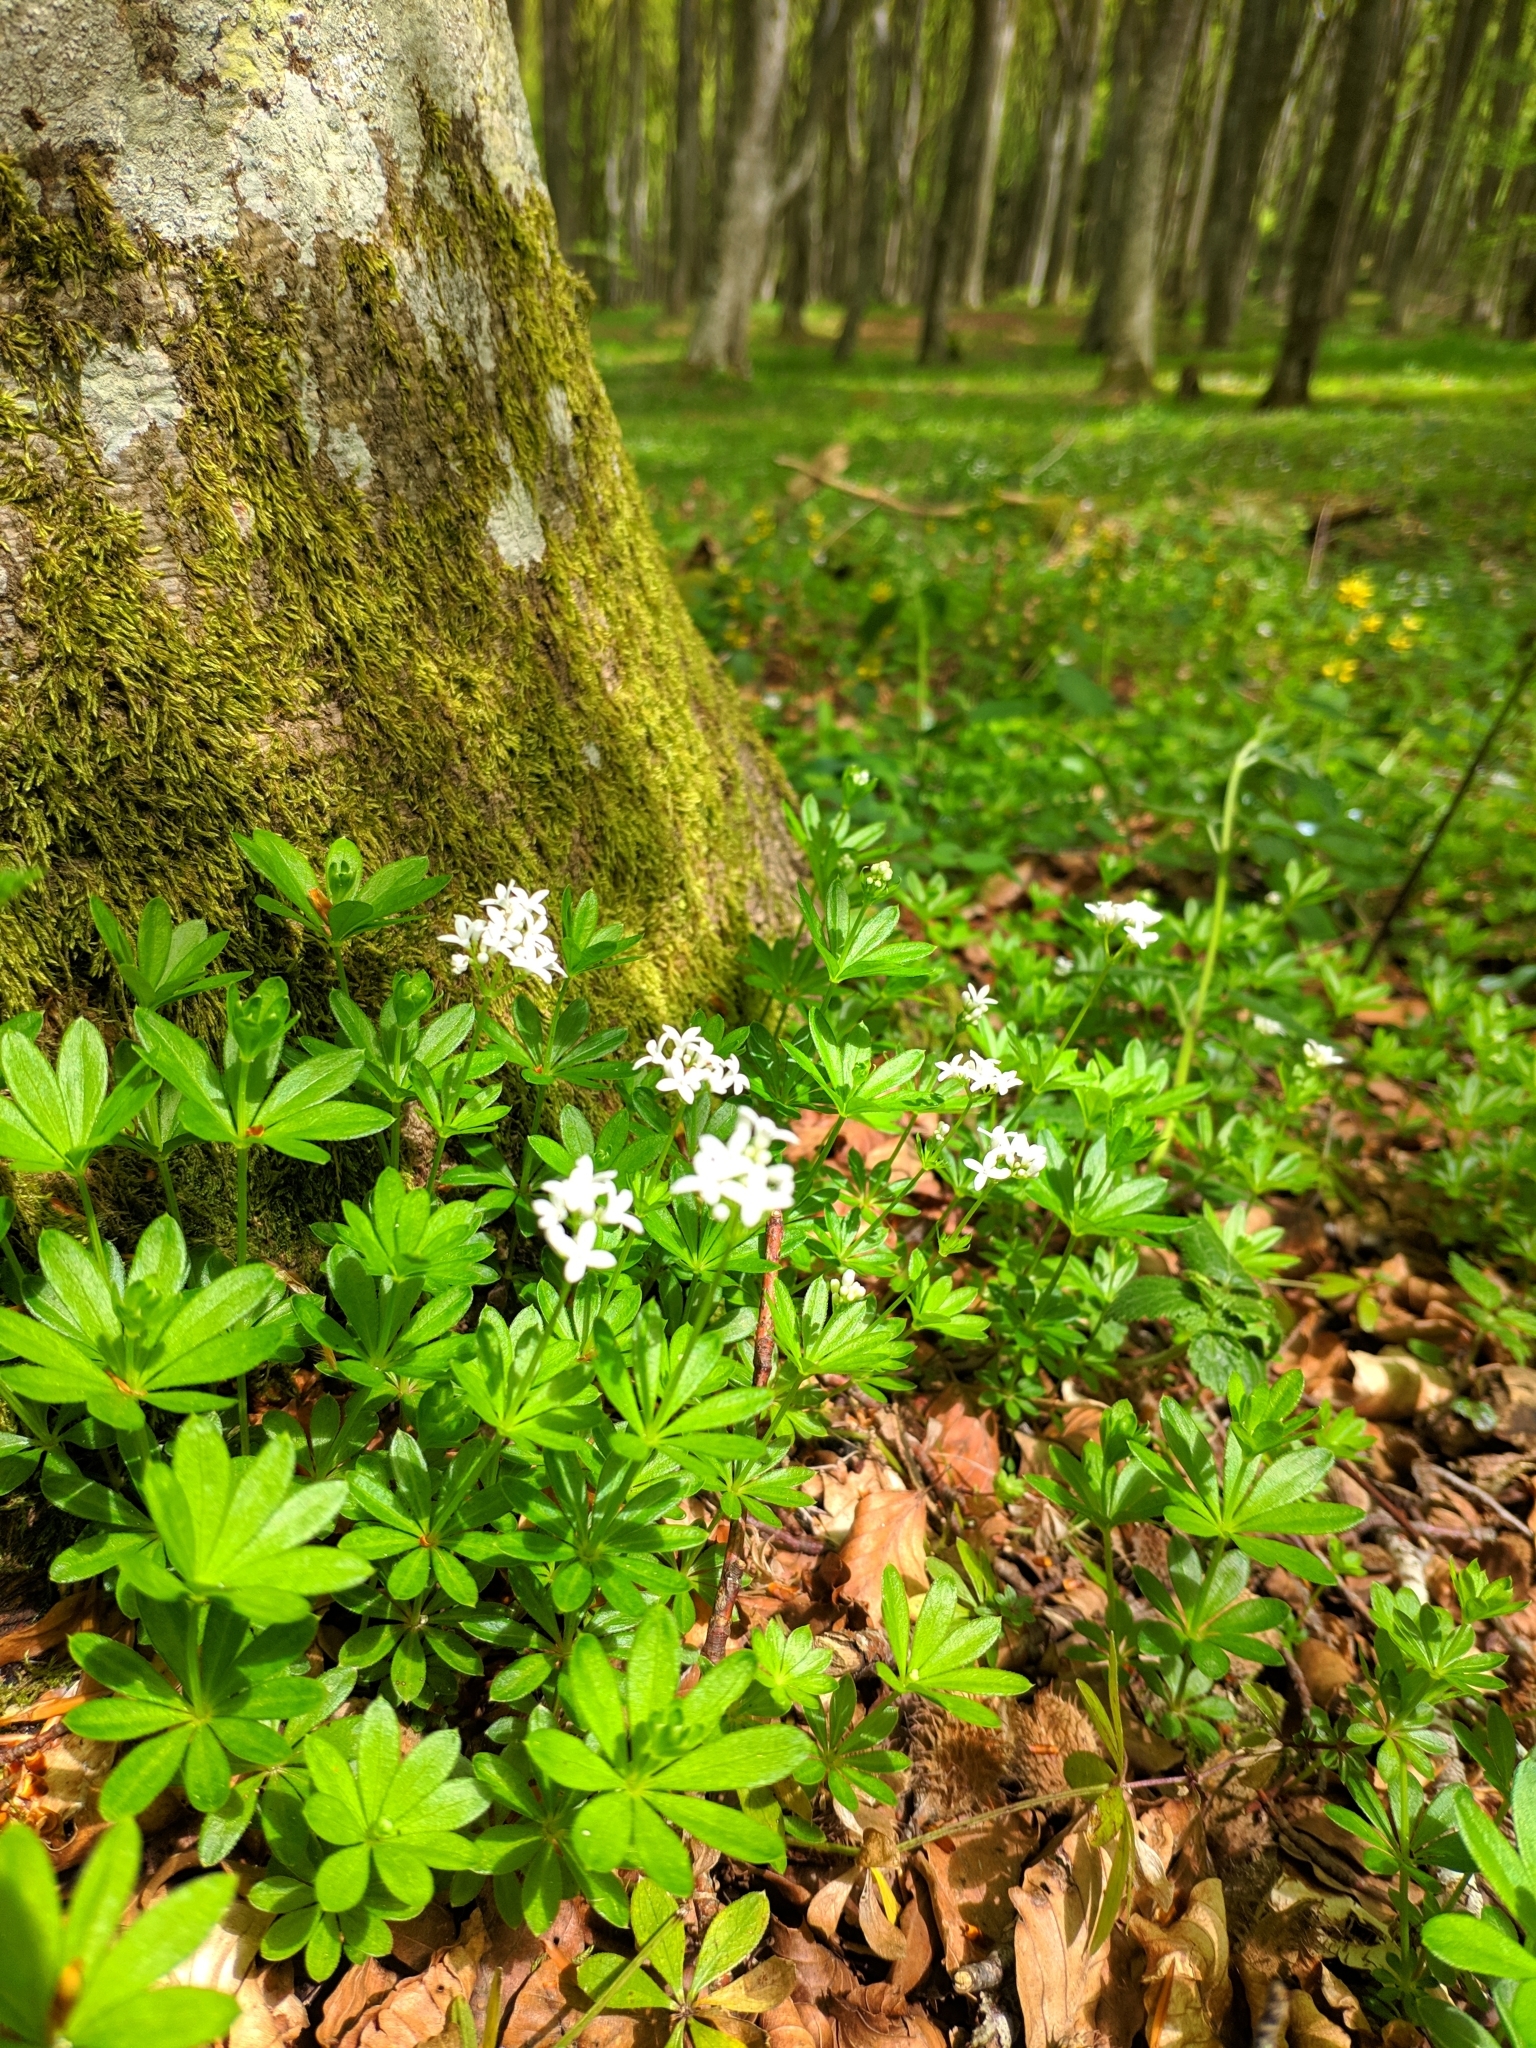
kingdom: Plantae
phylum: Tracheophyta
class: Magnoliopsida
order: Gentianales
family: Rubiaceae
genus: Galium
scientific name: Galium odoratum
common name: Sweet woodruff
